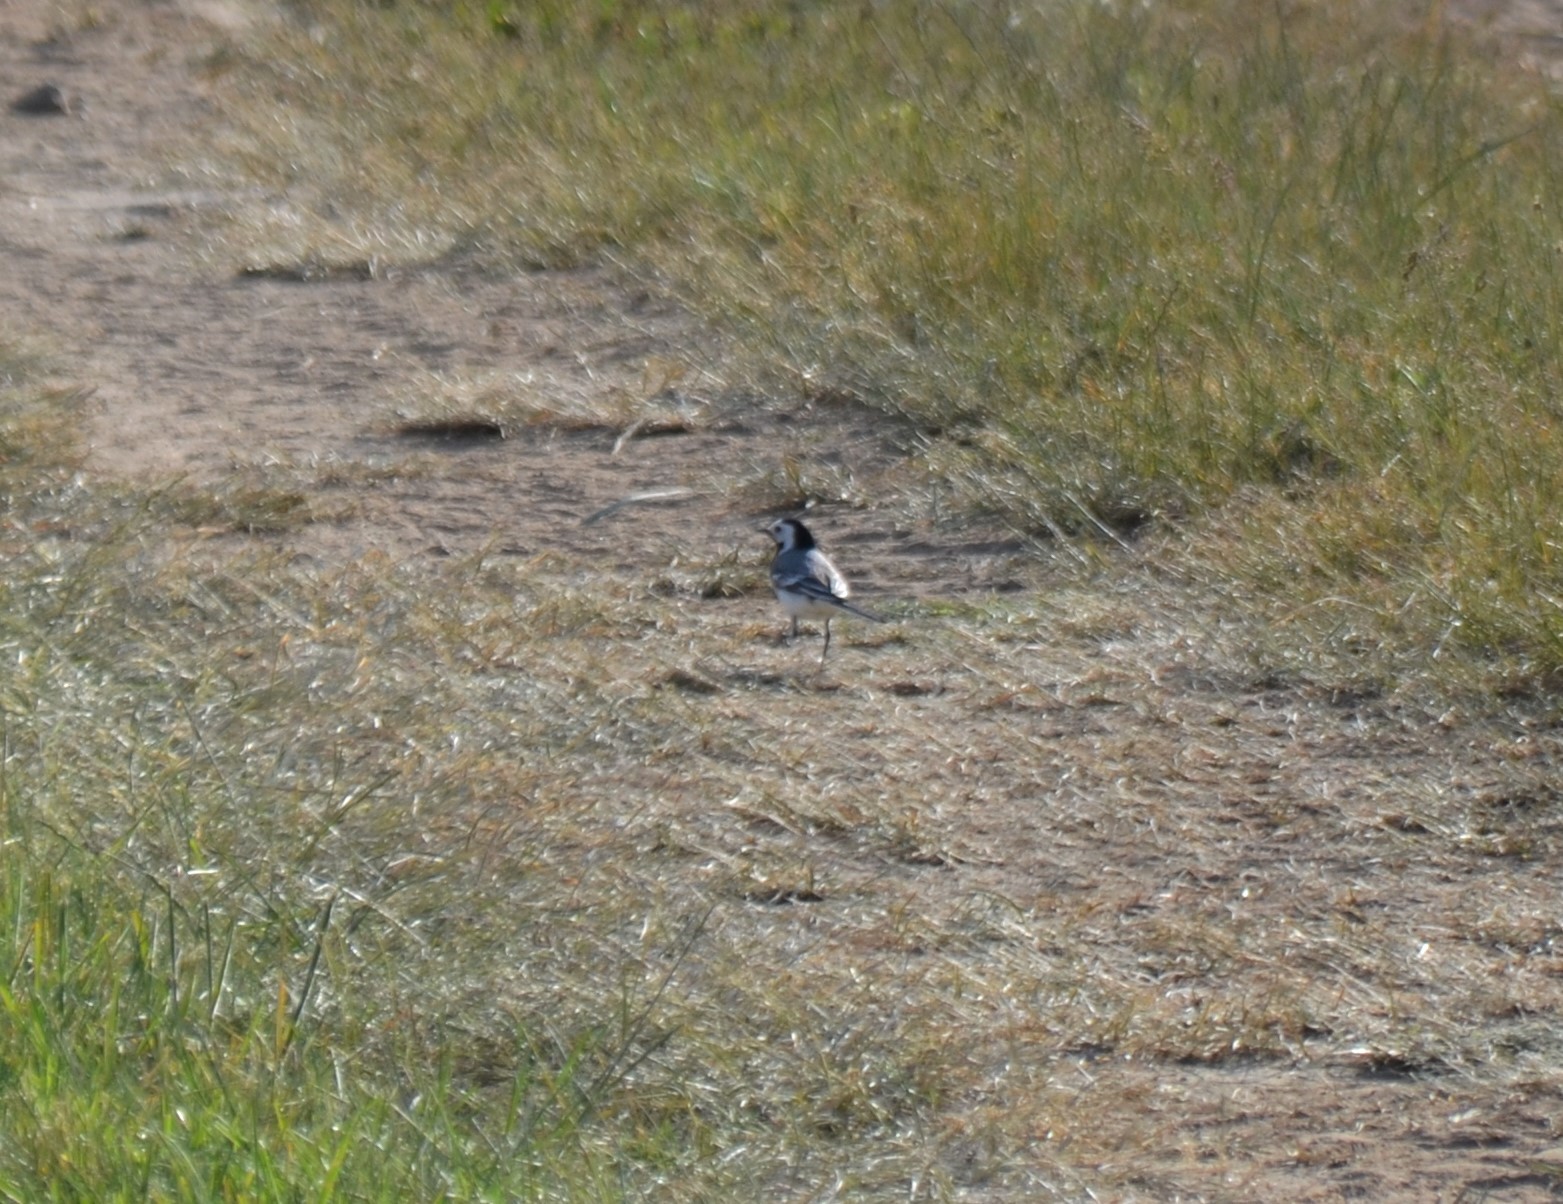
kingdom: Animalia
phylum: Chordata
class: Aves
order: Passeriformes
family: Motacillidae
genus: Motacilla
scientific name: Motacilla alba
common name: White wagtail
